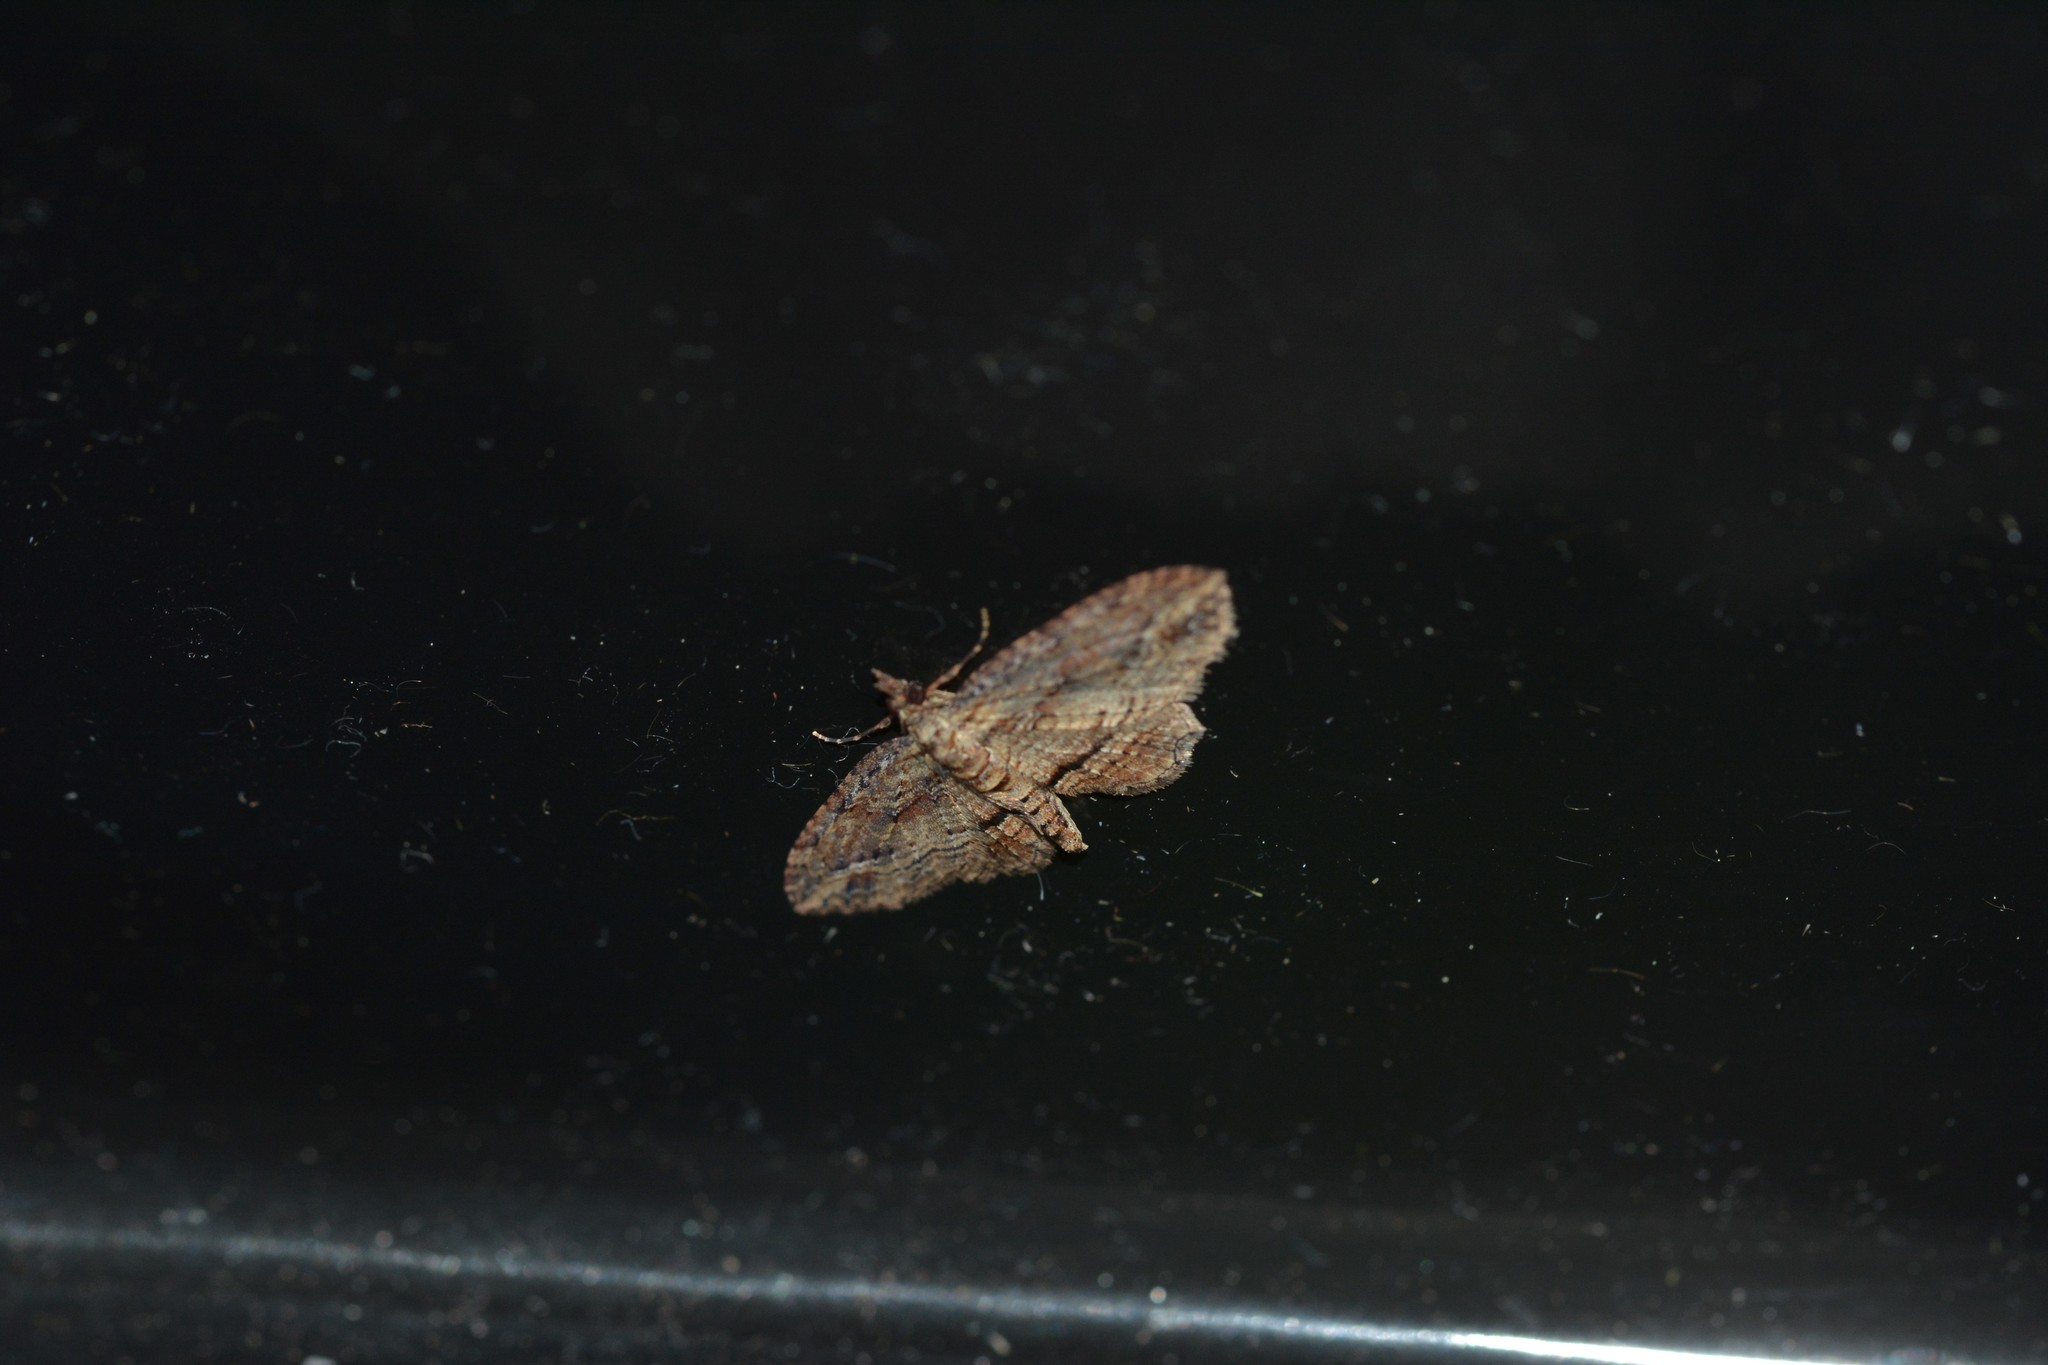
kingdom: Animalia
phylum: Arthropoda
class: Insecta
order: Lepidoptera
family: Geometridae
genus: Chloroclystis
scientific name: Chloroclystis filata
